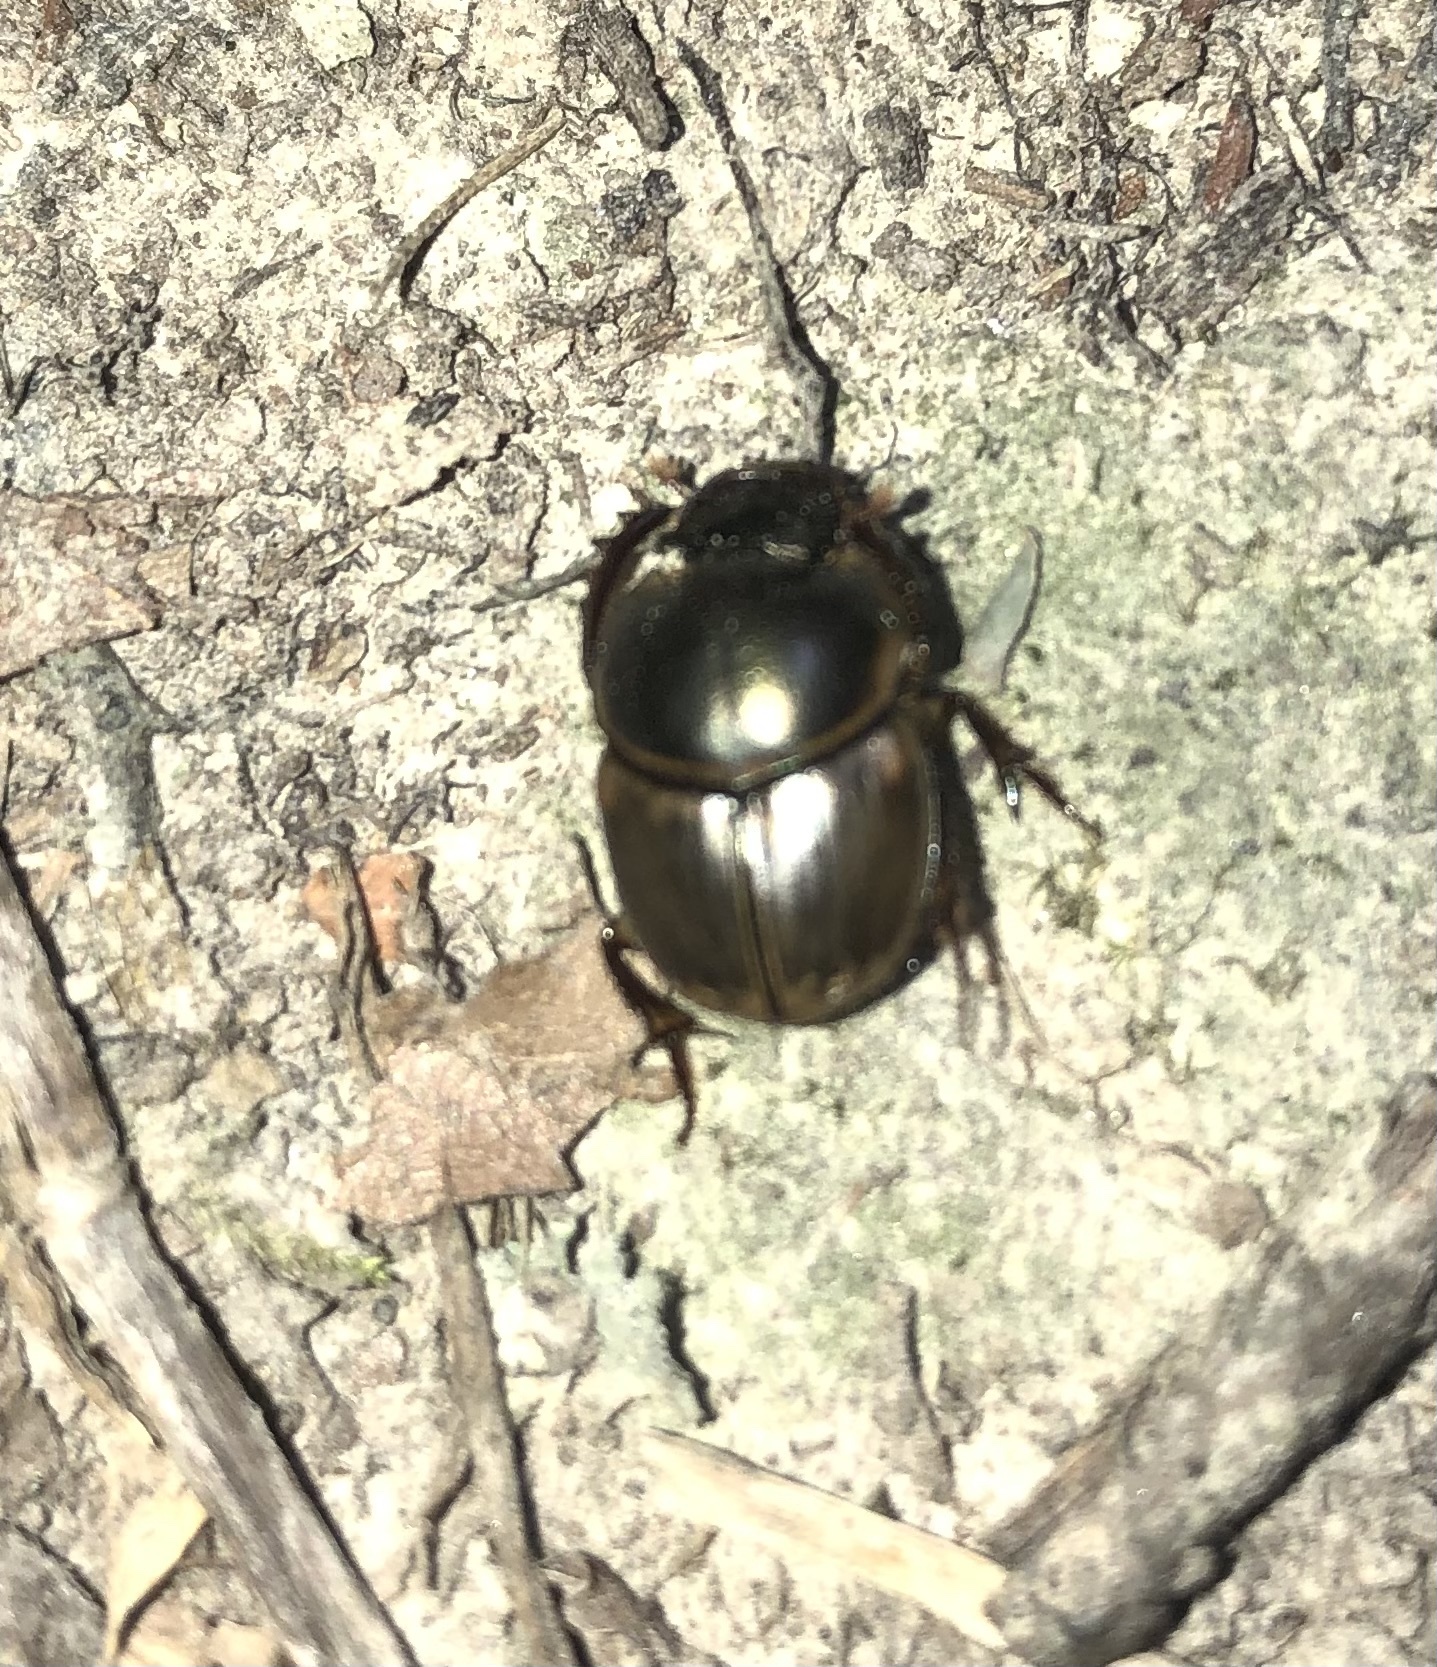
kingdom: Animalia
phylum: Arthropoda
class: Insecta
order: Coleoptera
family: Scarabaeidae
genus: Digitonthophagus
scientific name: Digitonthophagus gazella
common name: Brown dung beetle
